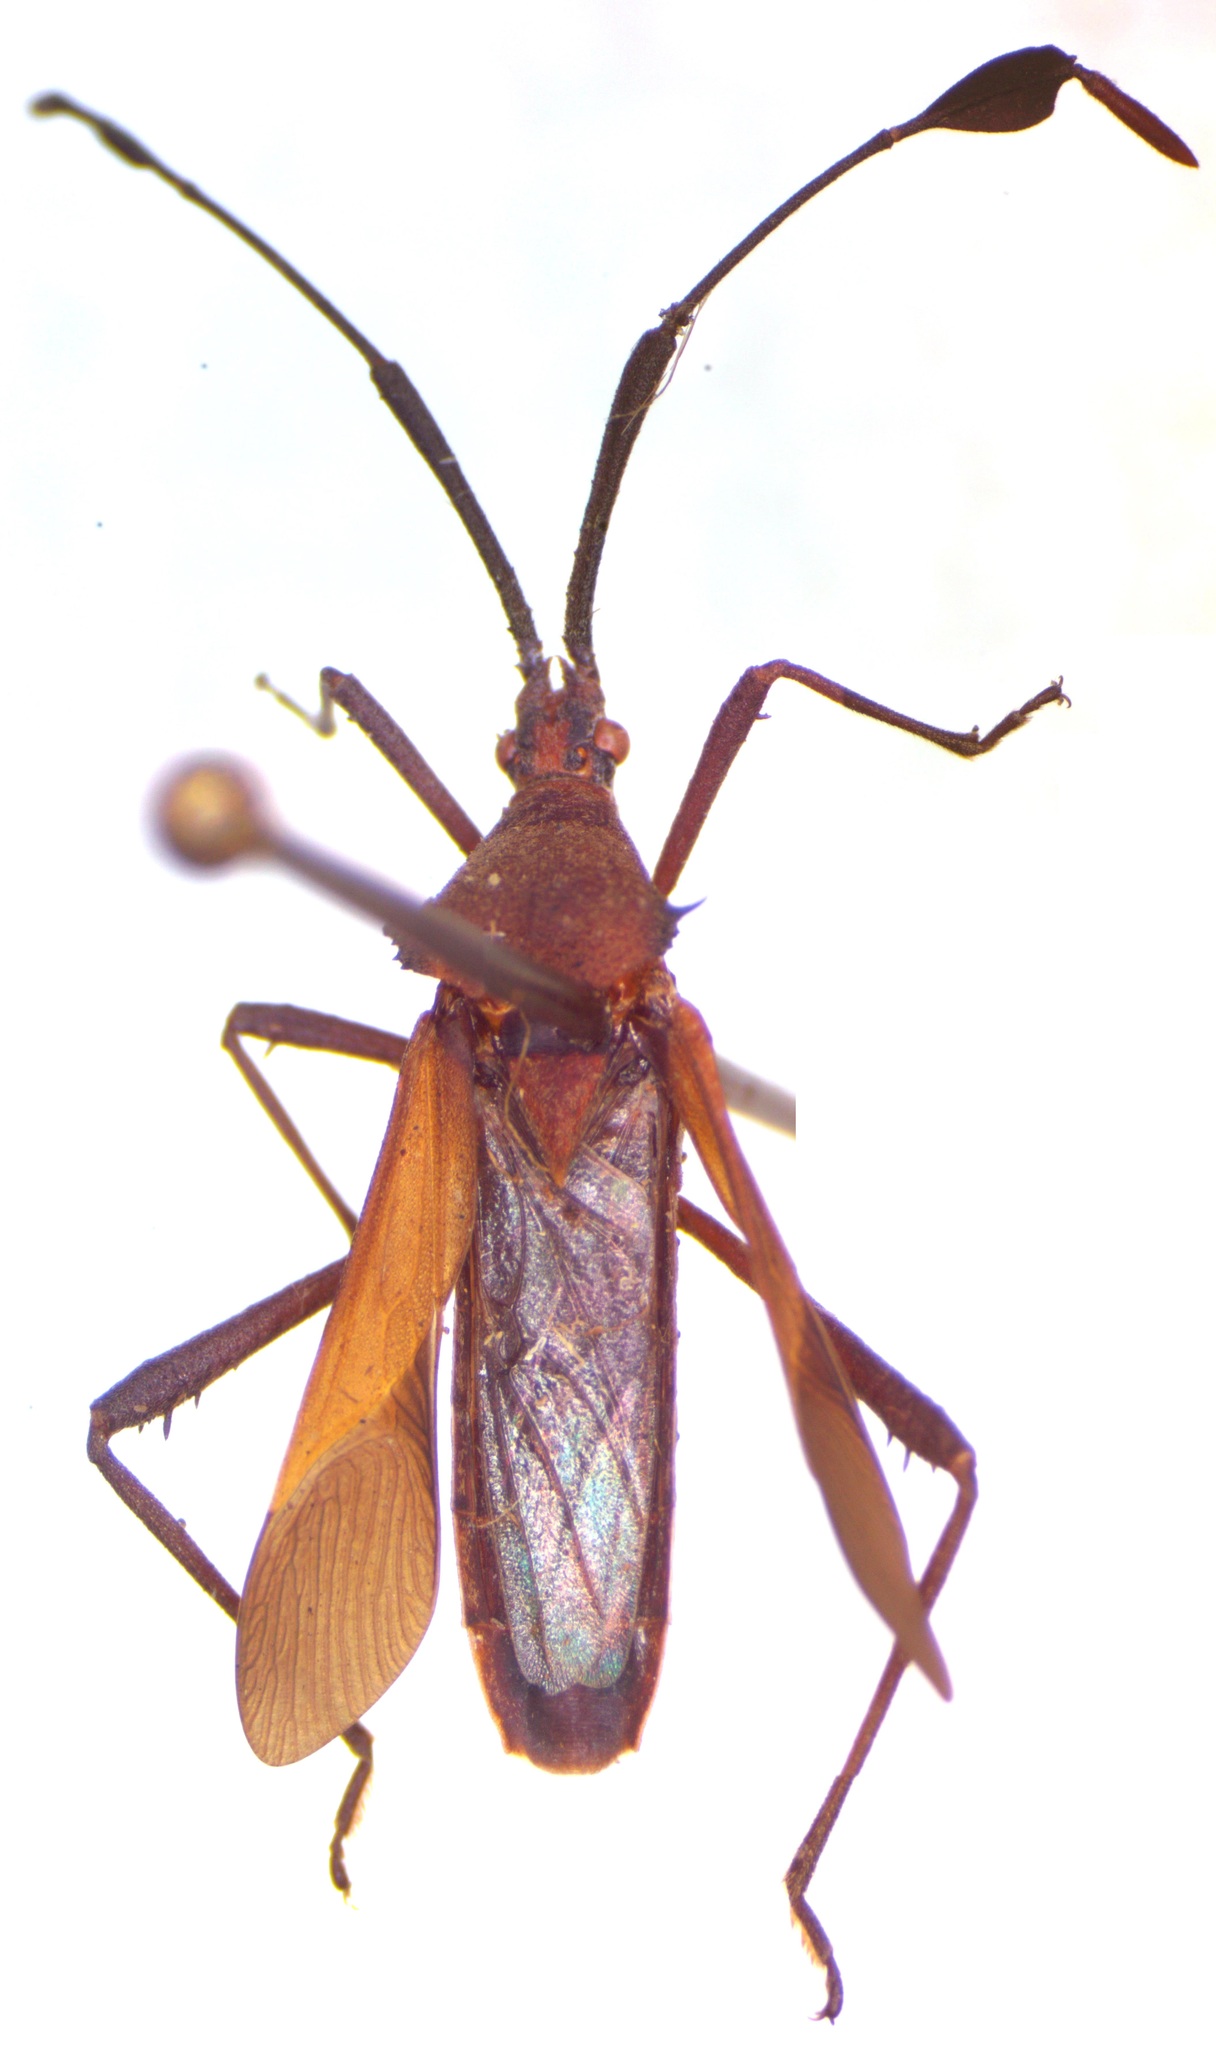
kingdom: Animalia
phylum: Arthropoda
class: Insecta
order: Hemiptera
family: Coreidae
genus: Chariesterus
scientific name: Chariesterus moestus
